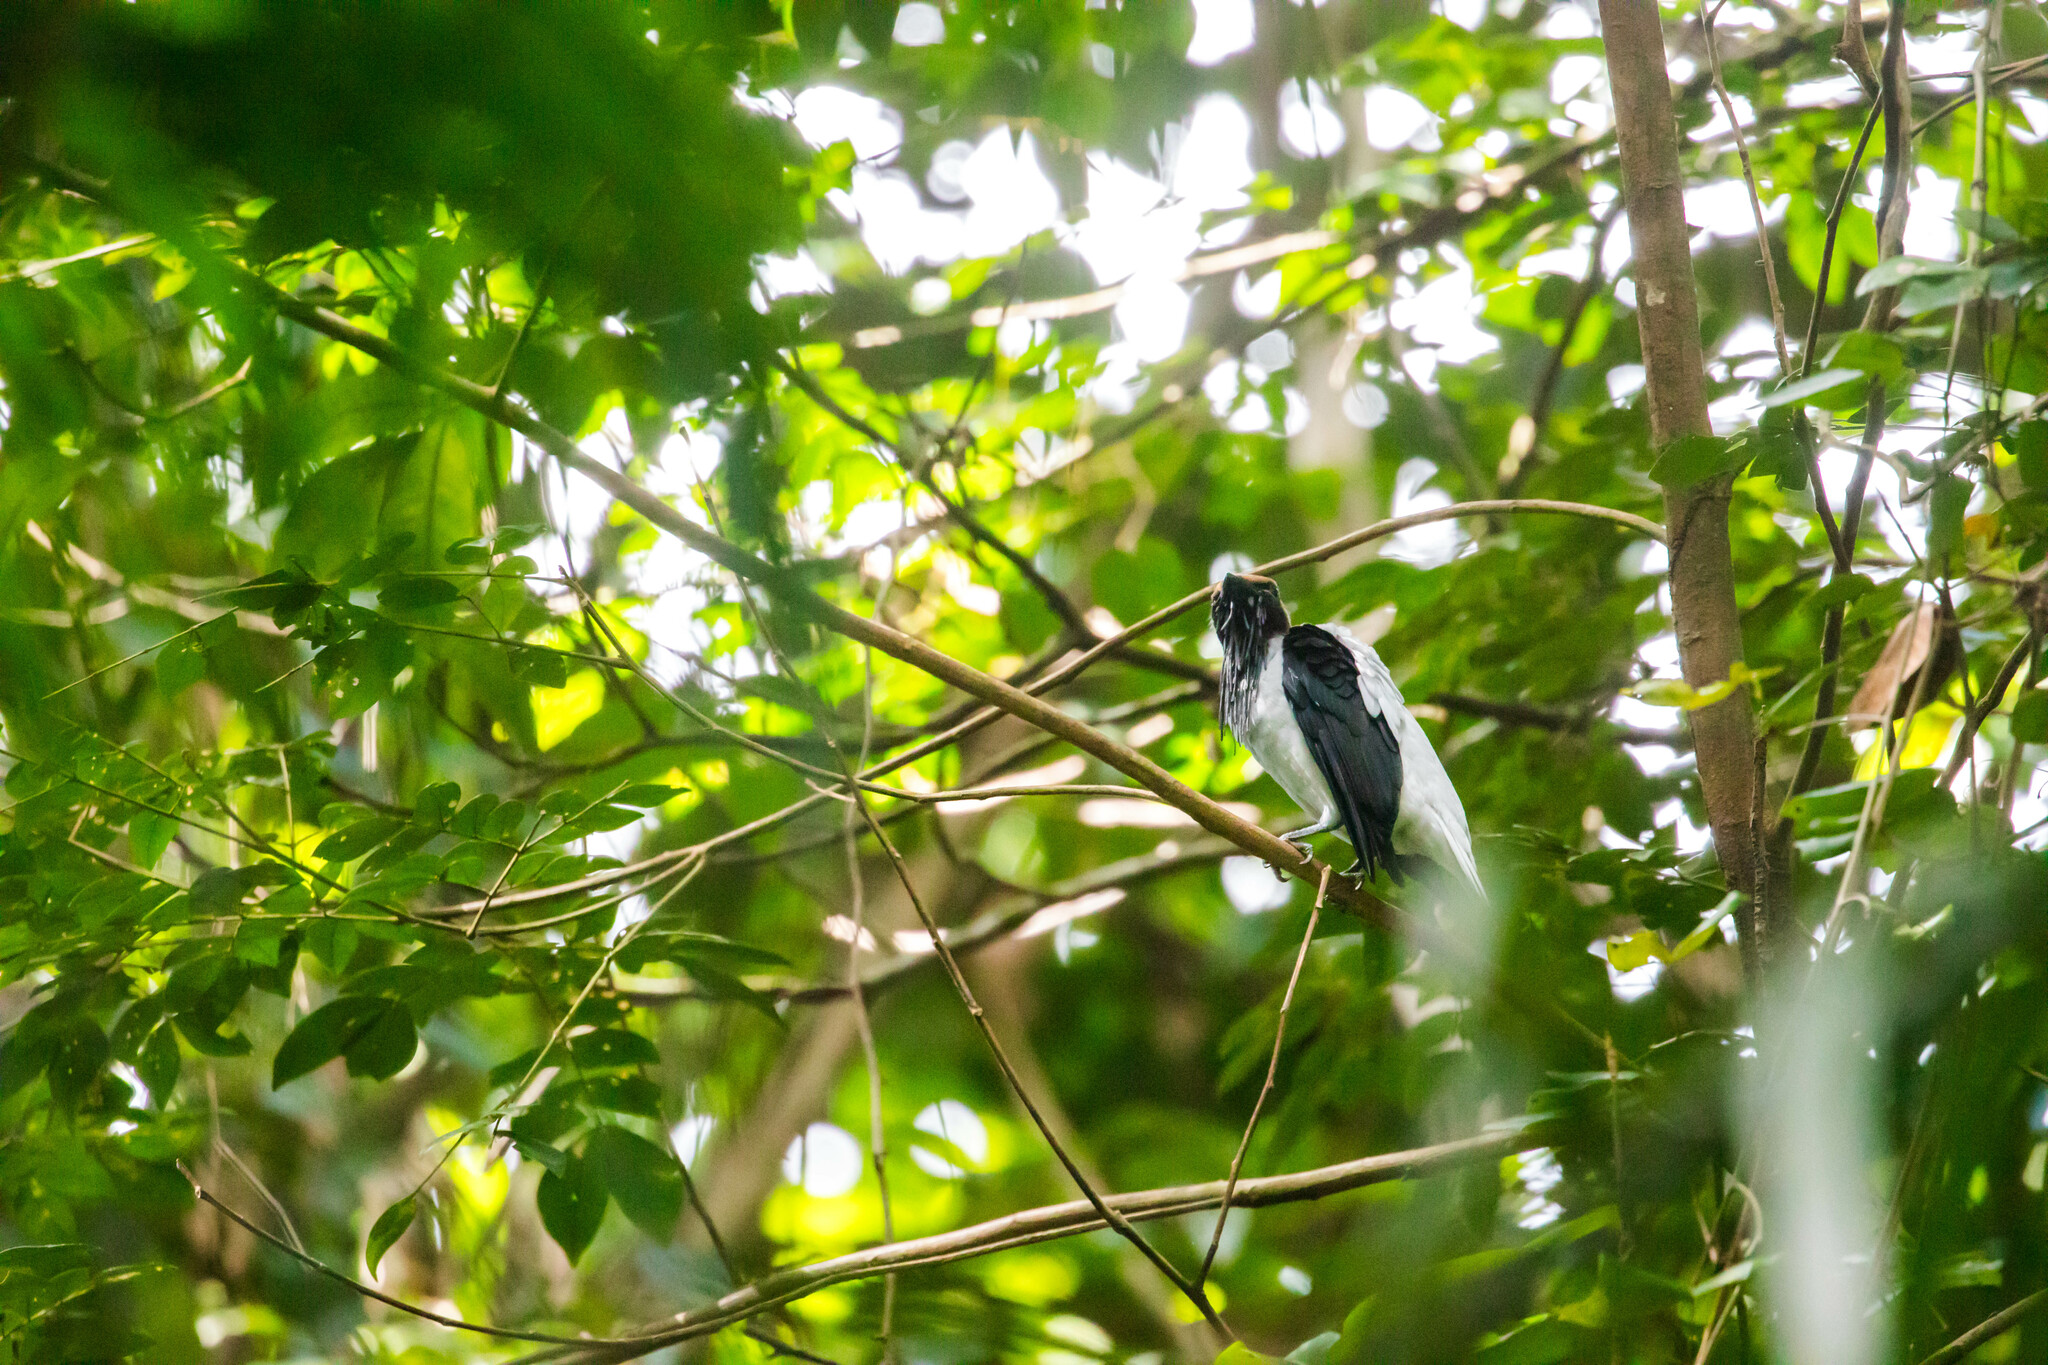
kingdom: Animalia
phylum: Chordata
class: Aves
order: Passeriformes
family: Cotingidae
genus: Procnias
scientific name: Procnias averano
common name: Bearded bellbird
